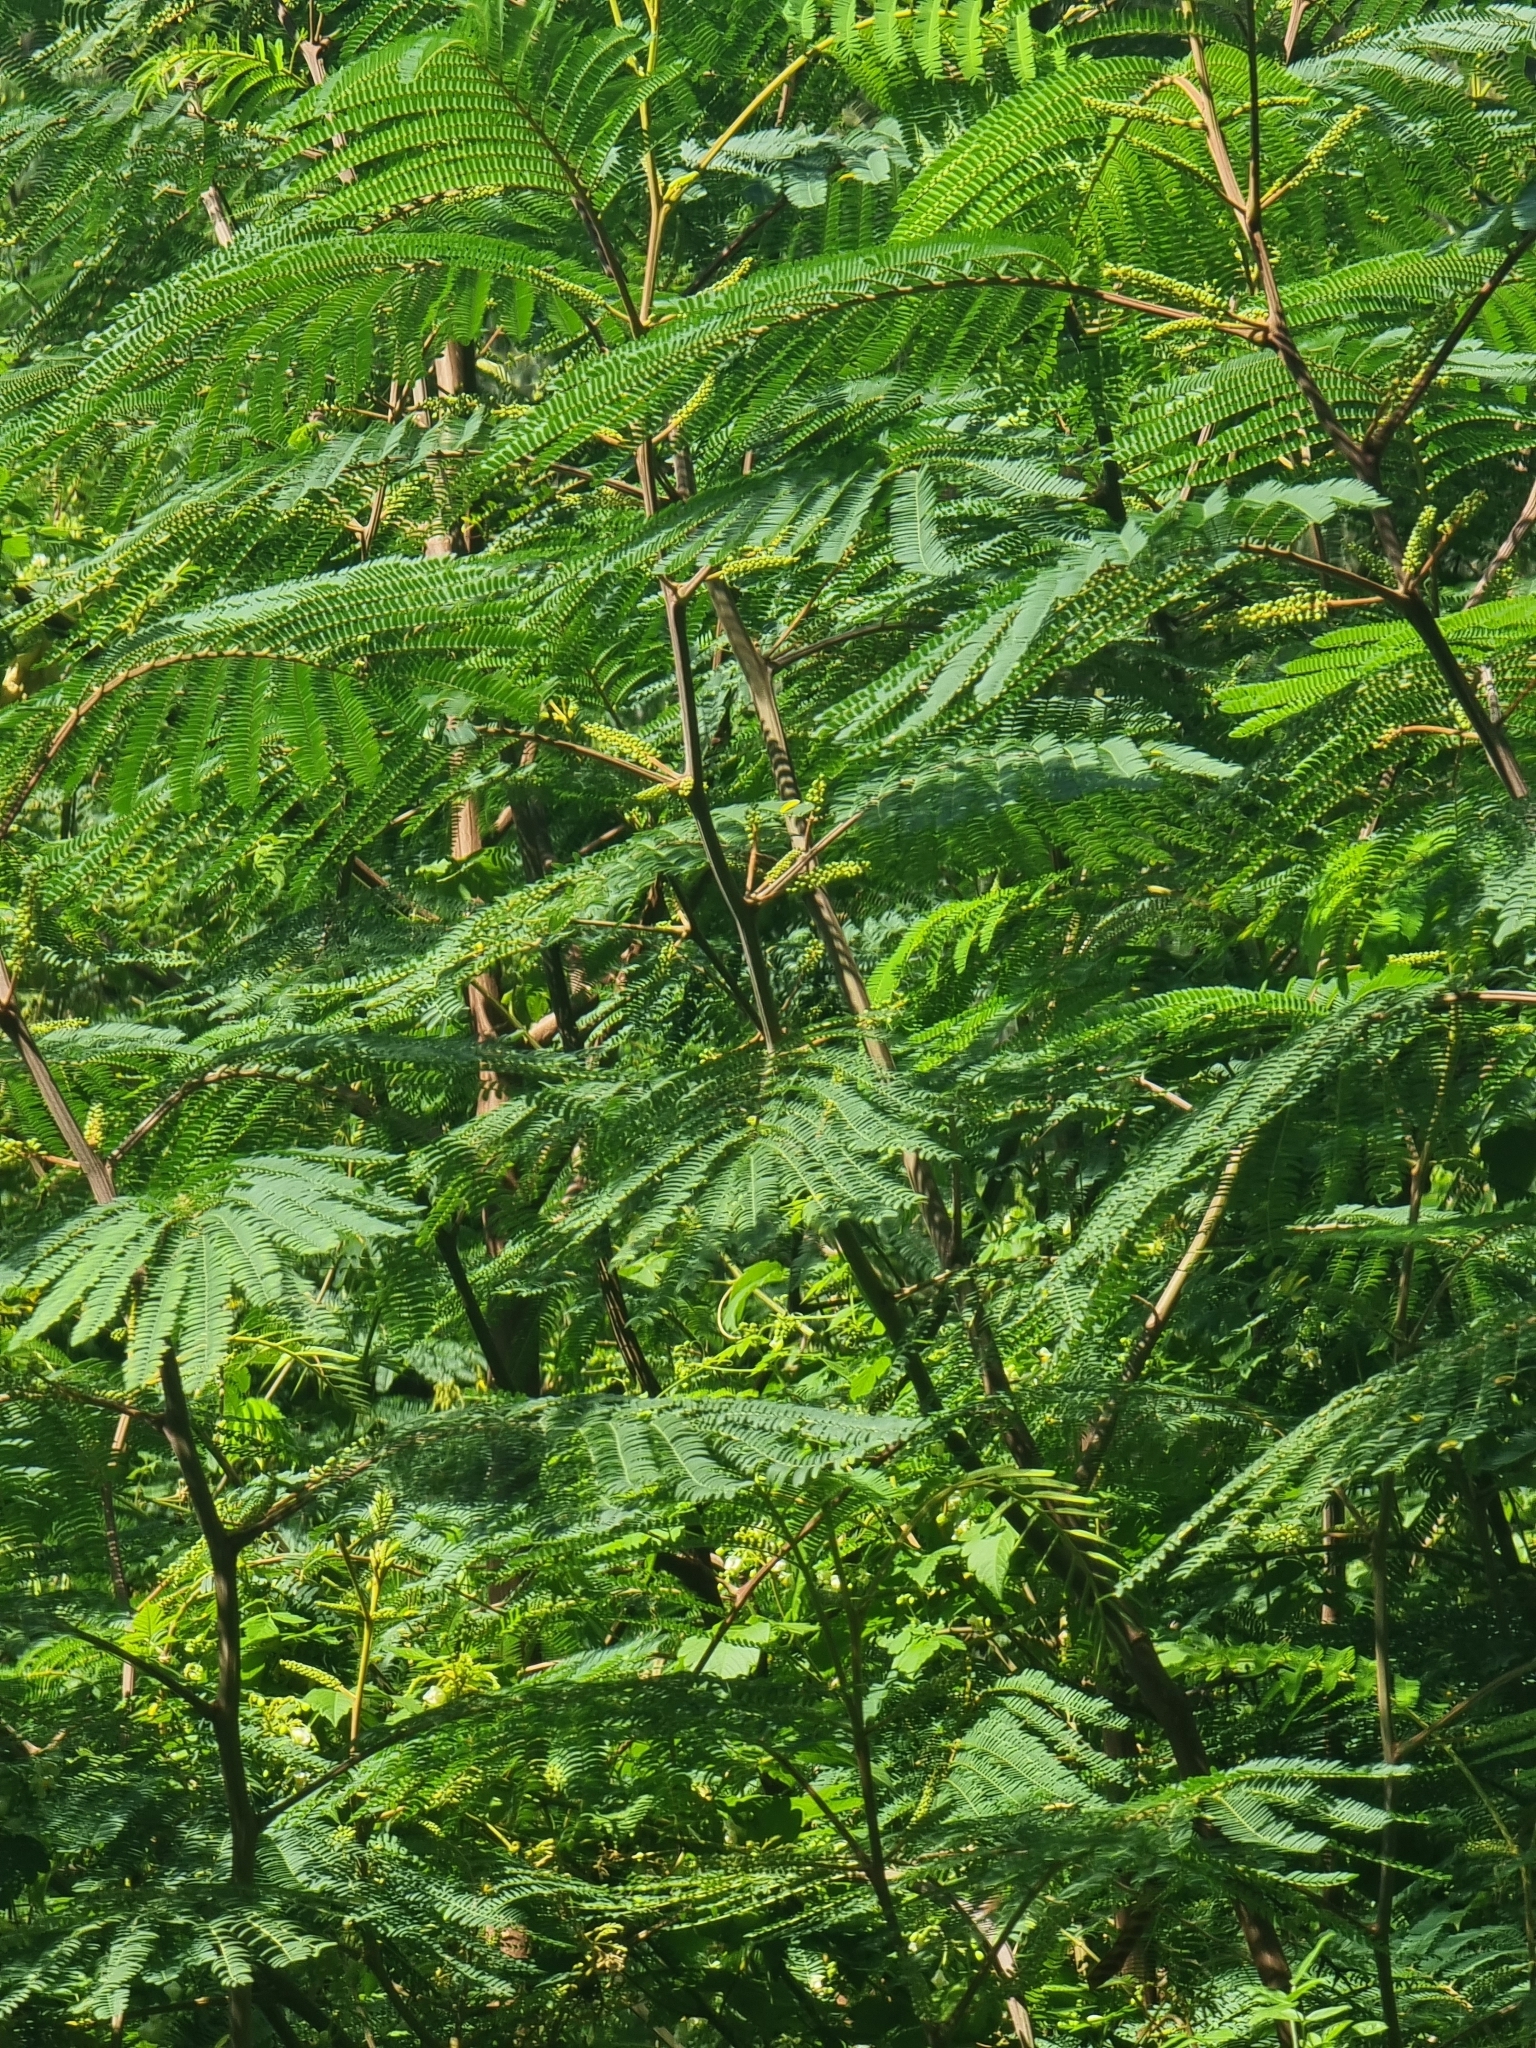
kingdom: Plantae
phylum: Tracheophyta
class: Magnoliopsida
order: Fabales
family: Fabaceae
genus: Paraserianthes
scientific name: Paraserianthes lophantha
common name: Plume albizia
